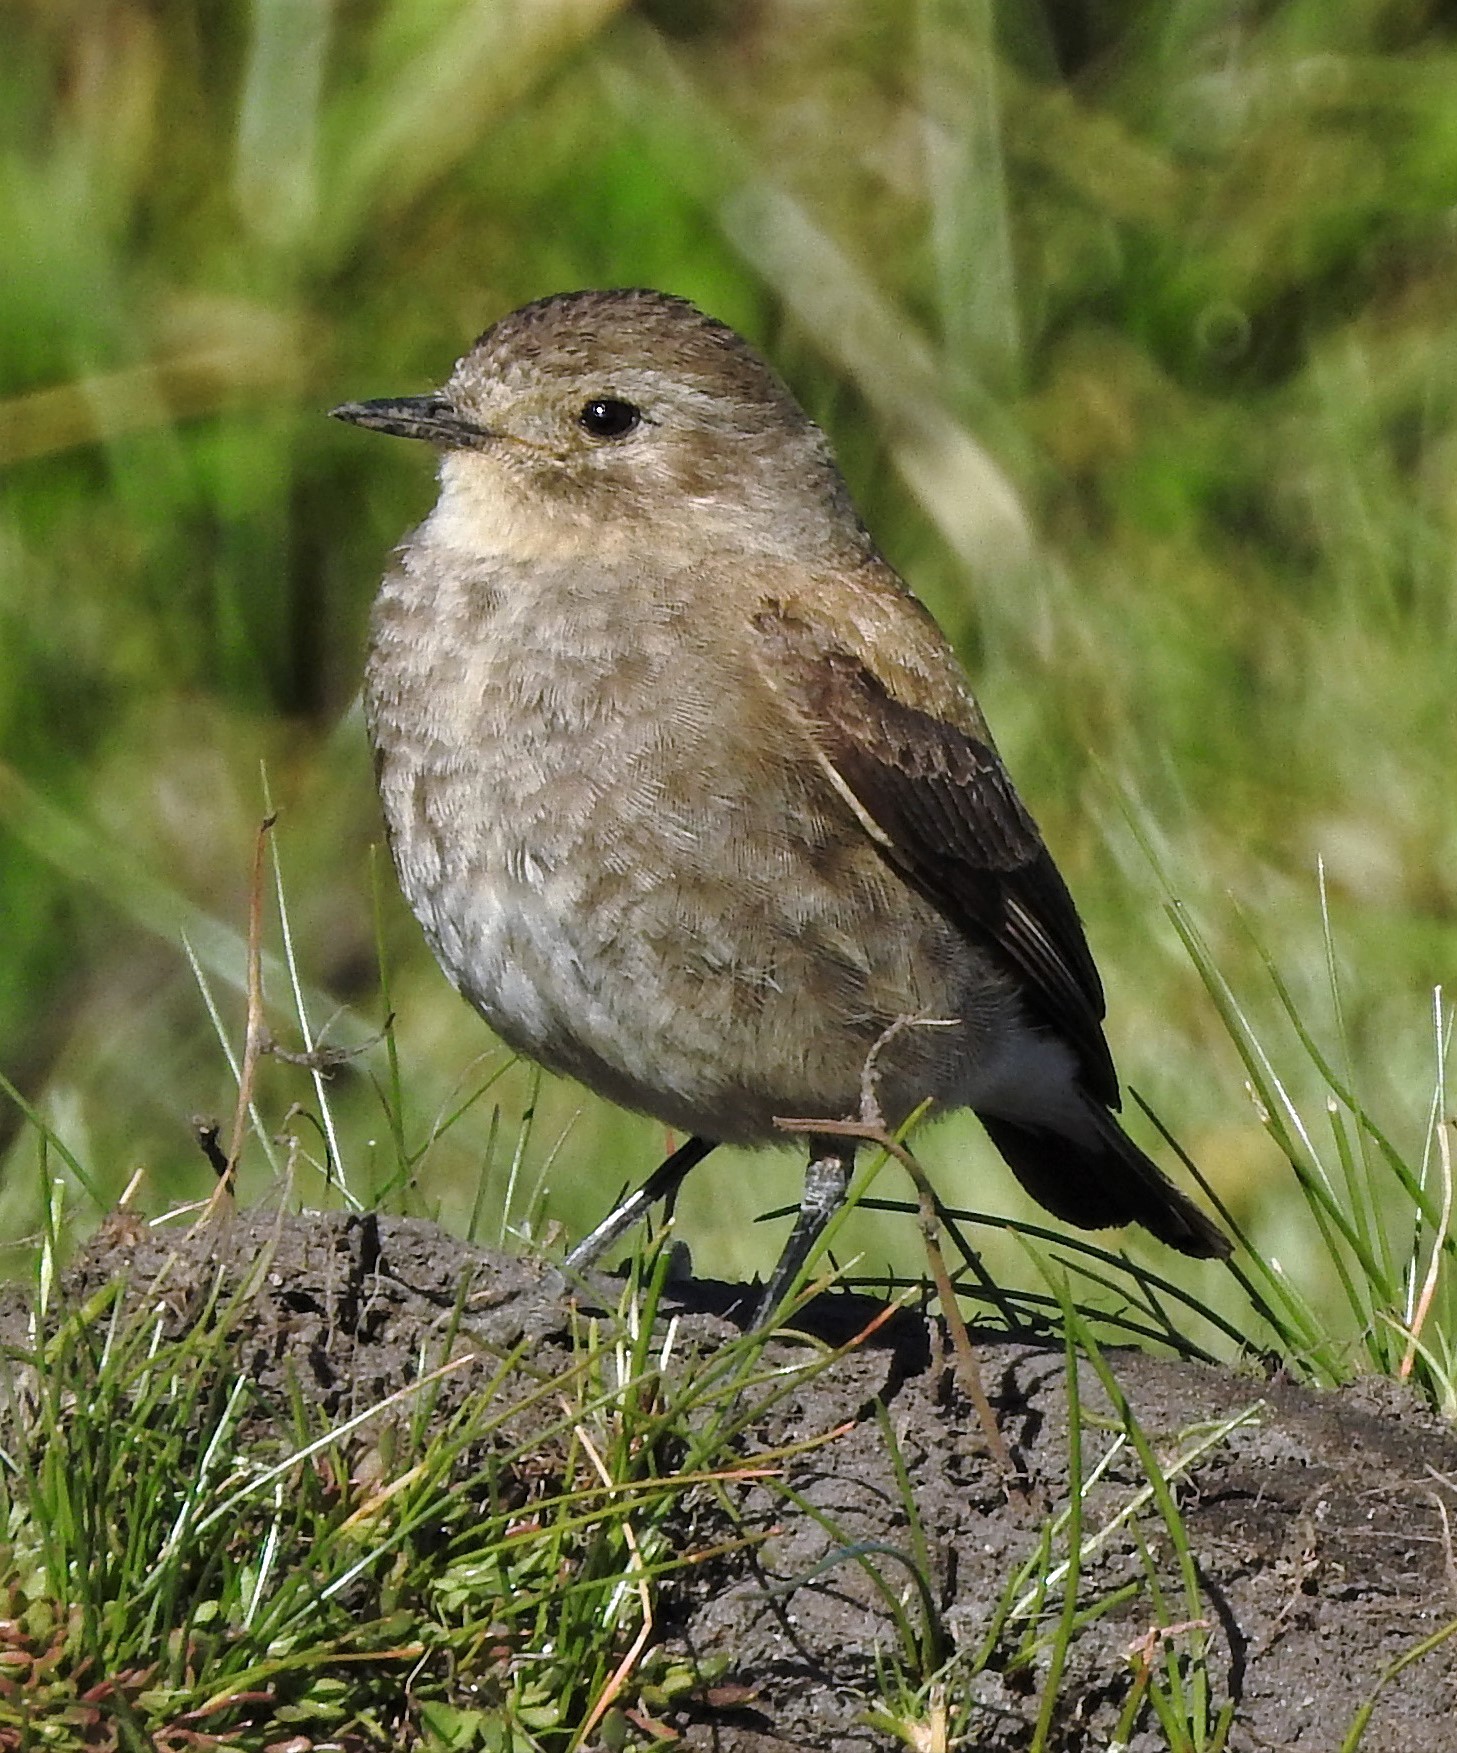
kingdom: Animalia
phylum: Chordata
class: Aves
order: Passeriformes
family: Tyrannidae
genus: Lessonia
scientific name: Lessonia rufa
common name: Austral negrito
